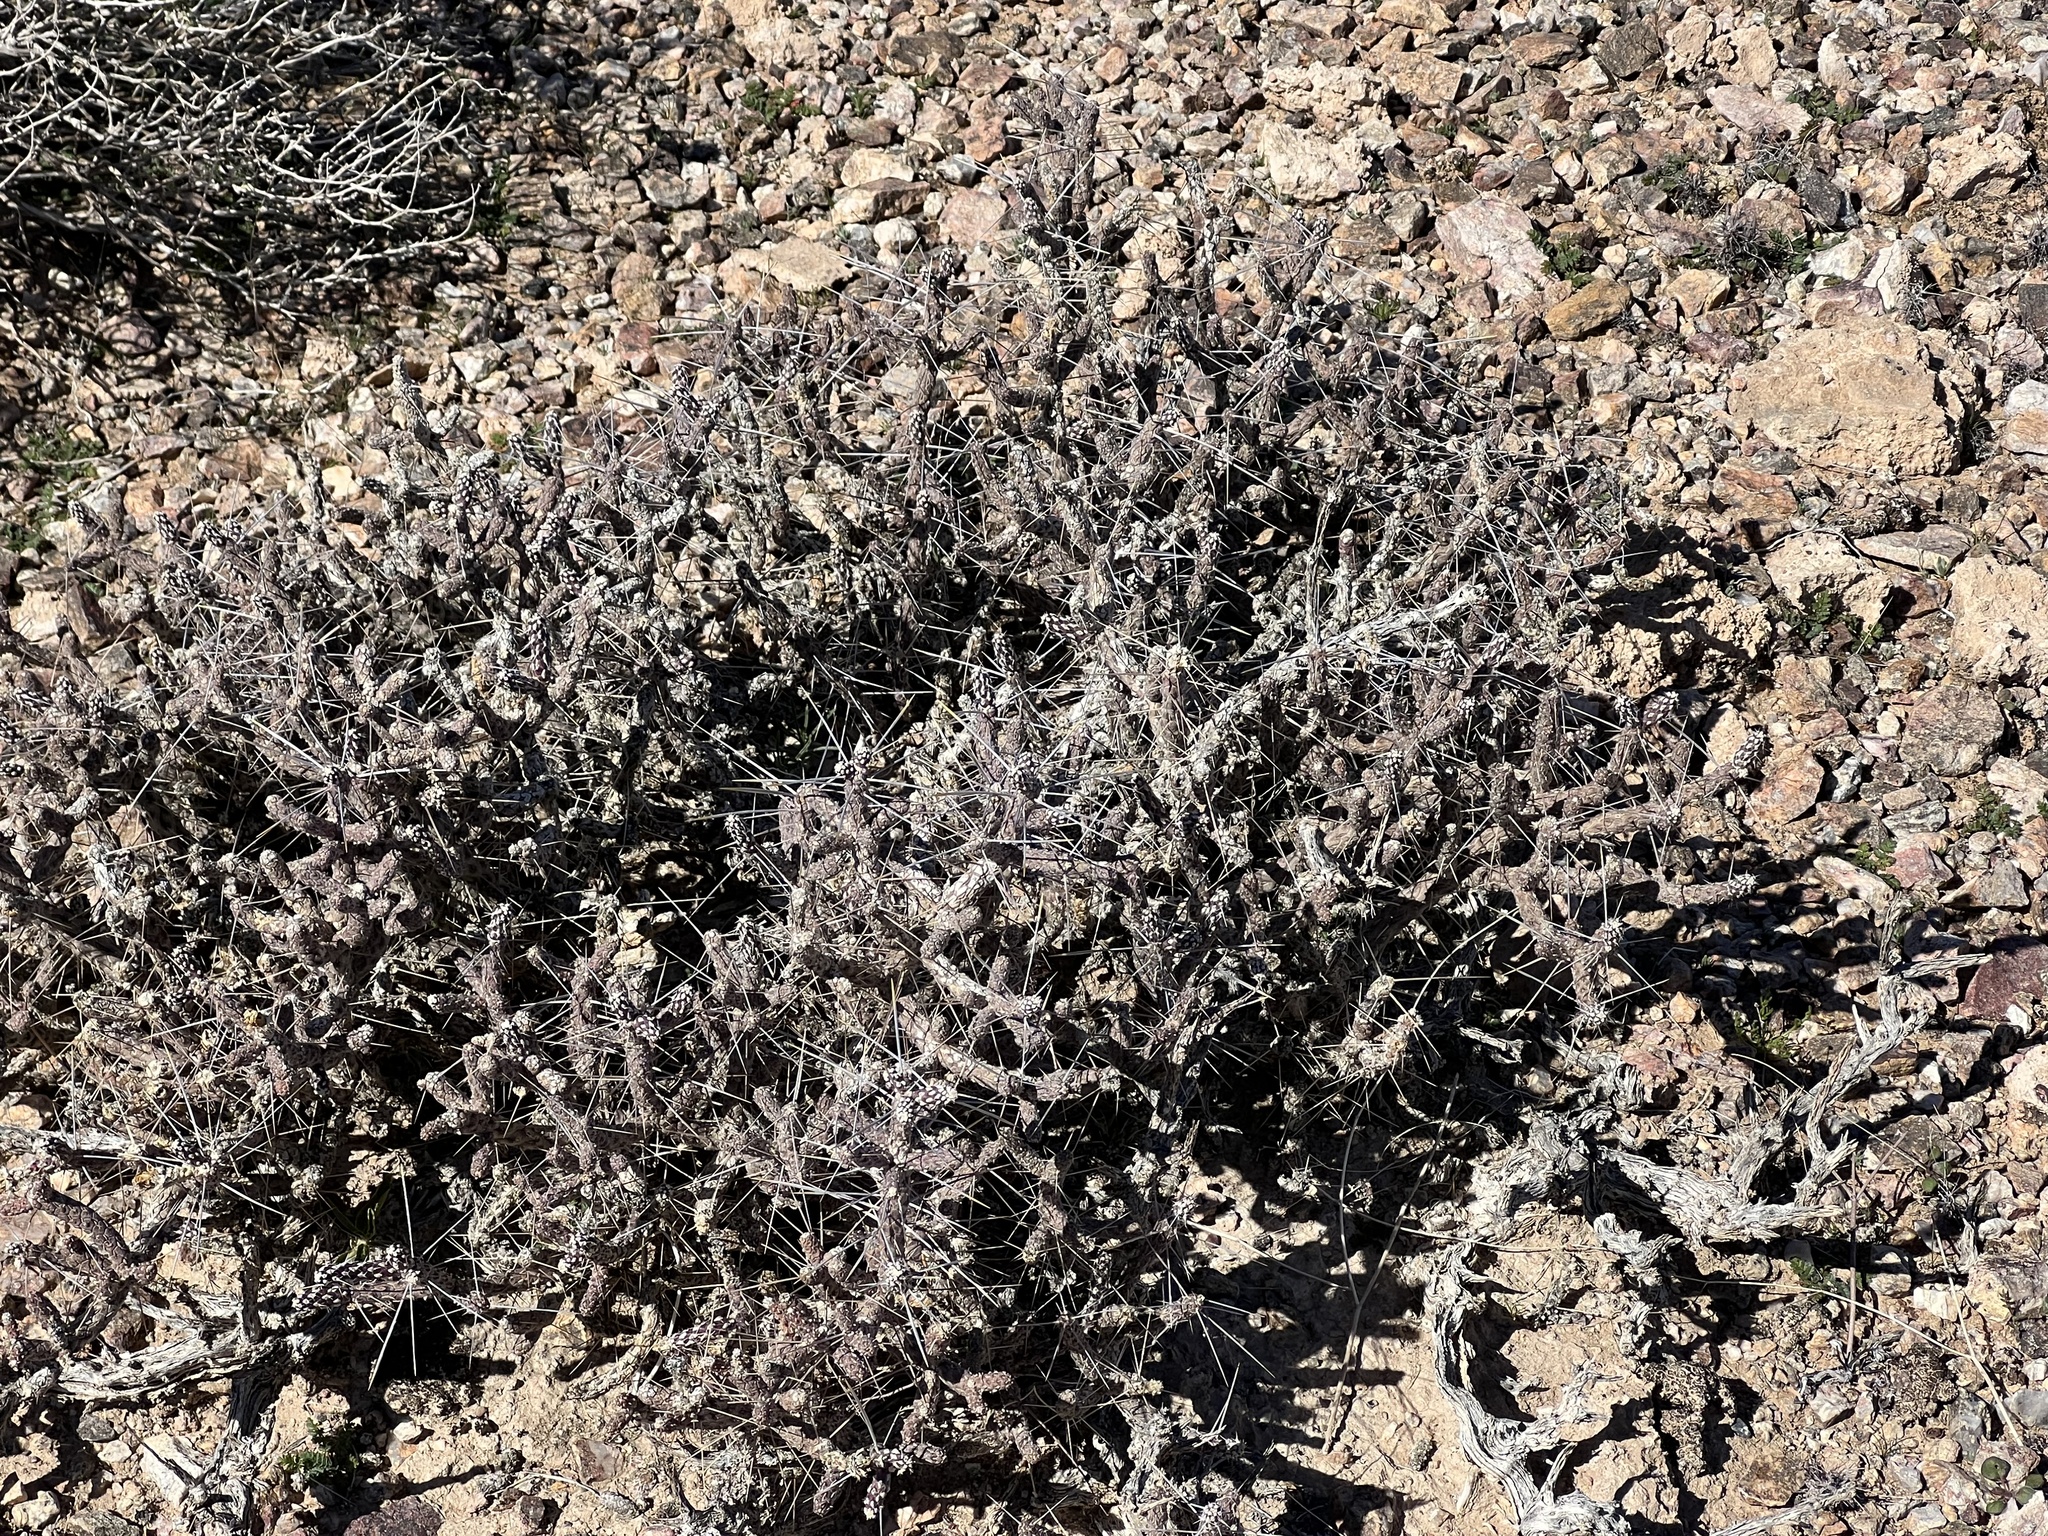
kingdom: Plantae
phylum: Tracheophyta
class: Magnoliopsida
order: Caryophyllales
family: Cactaceae
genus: Cylindropuntia
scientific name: Cylindropuntia ramosissima
